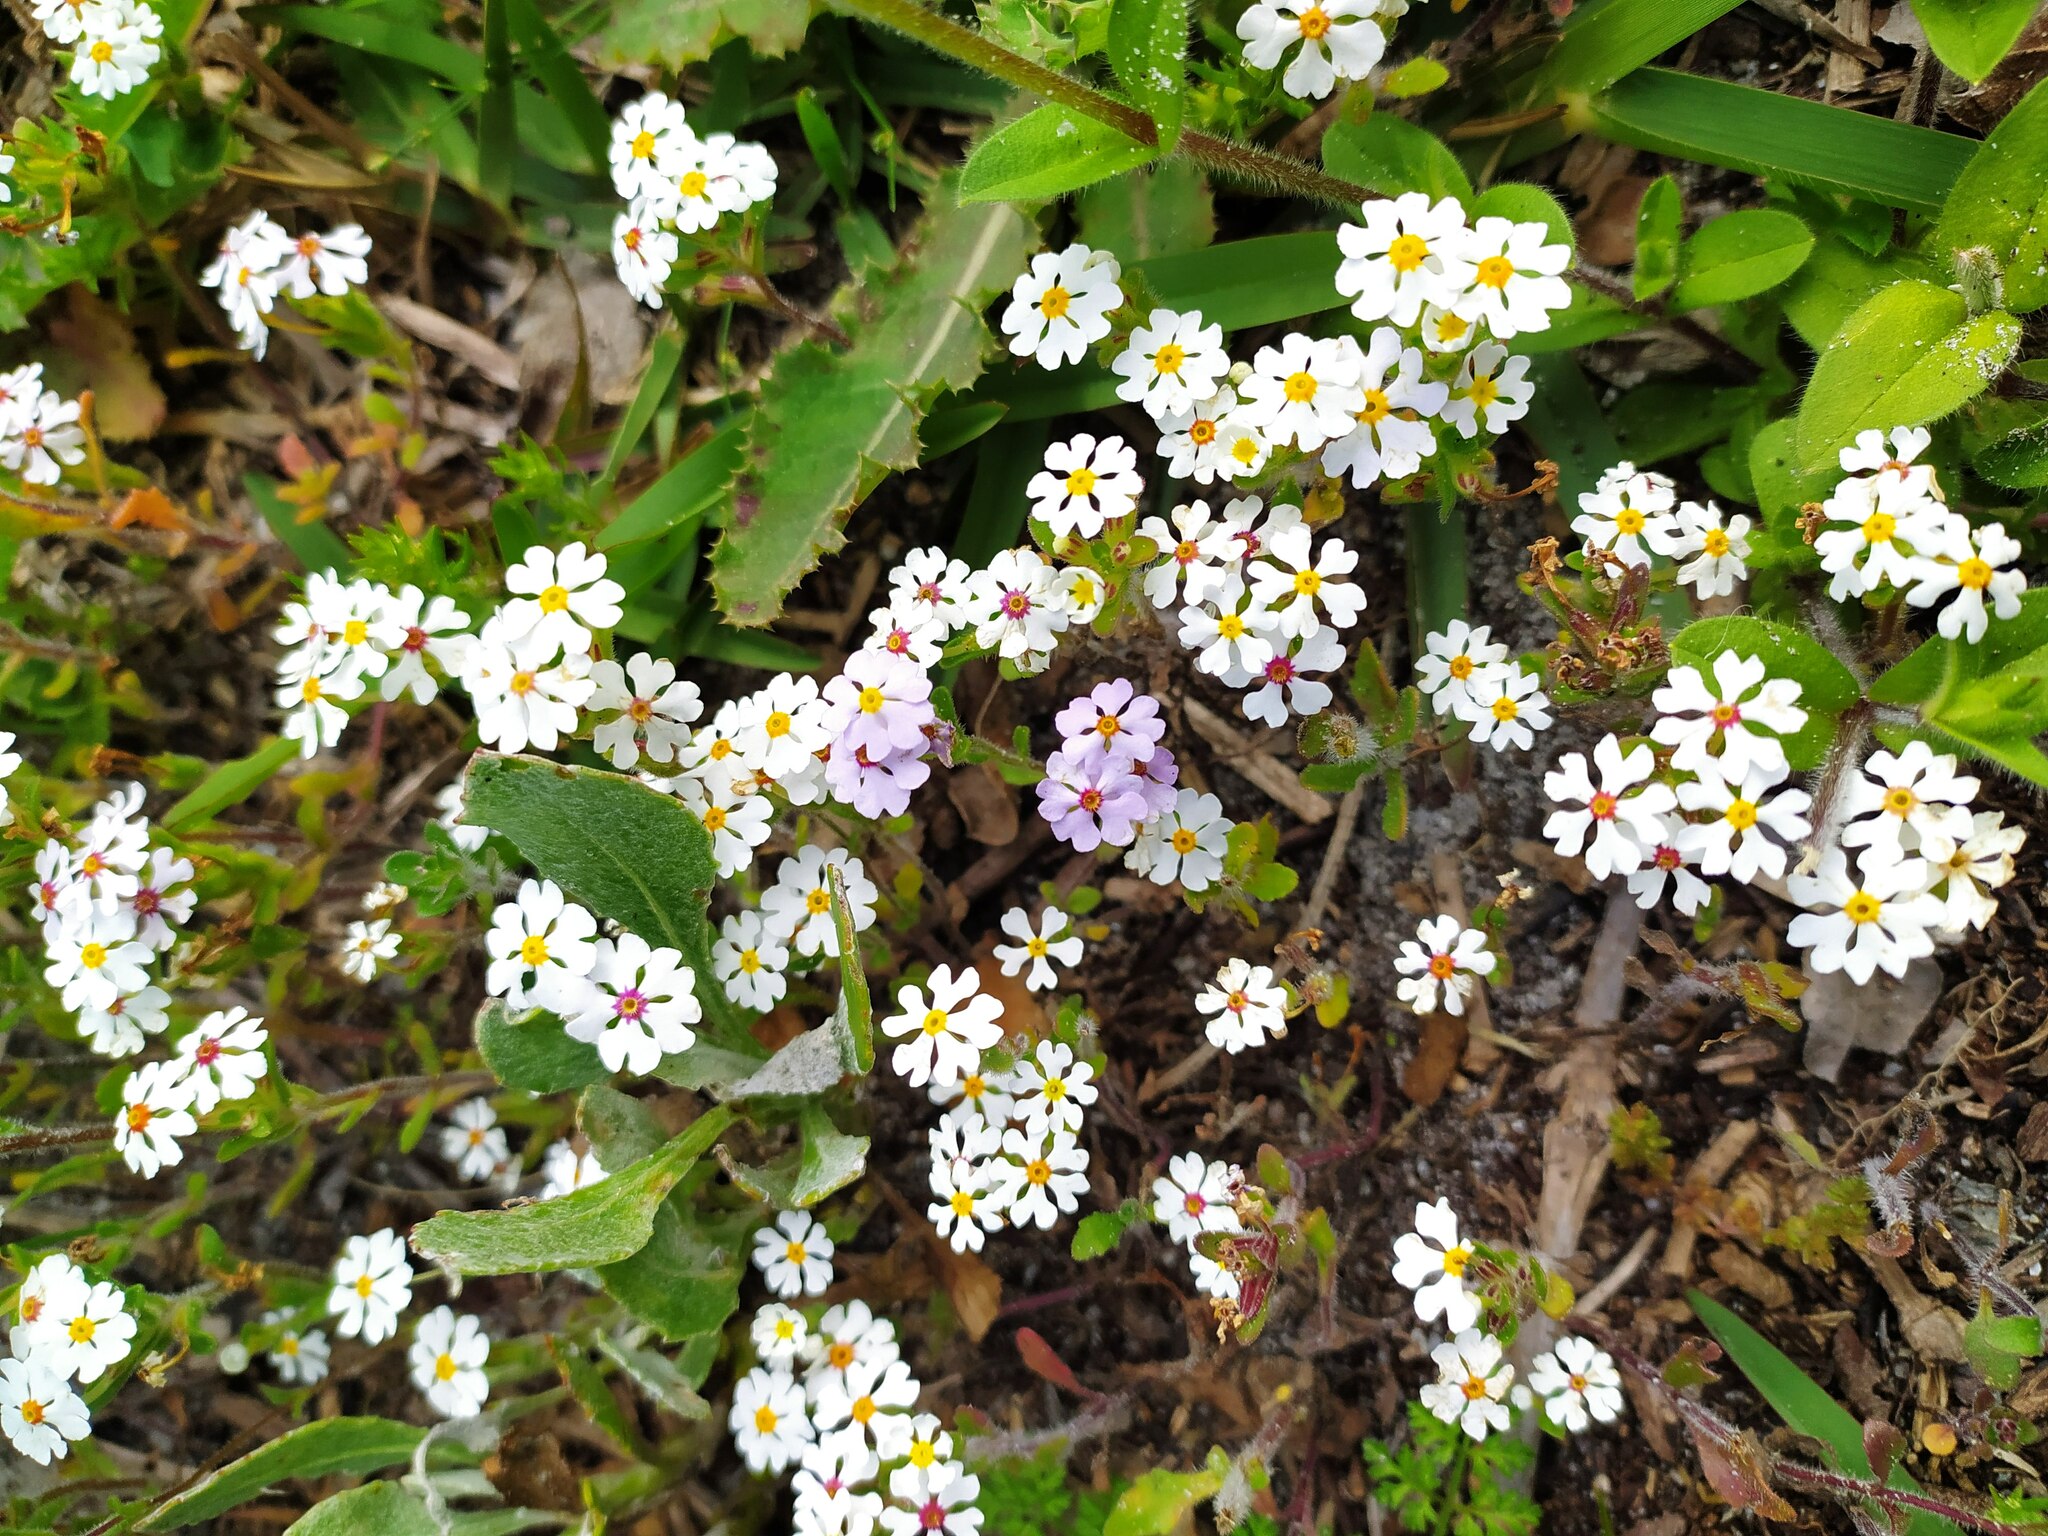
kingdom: Plantae
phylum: Tracheophyta
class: Magnoliopsida
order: Lamiales
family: Scrophulariaceae
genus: Zaluzianskya
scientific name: Zaluzianskya villosa
